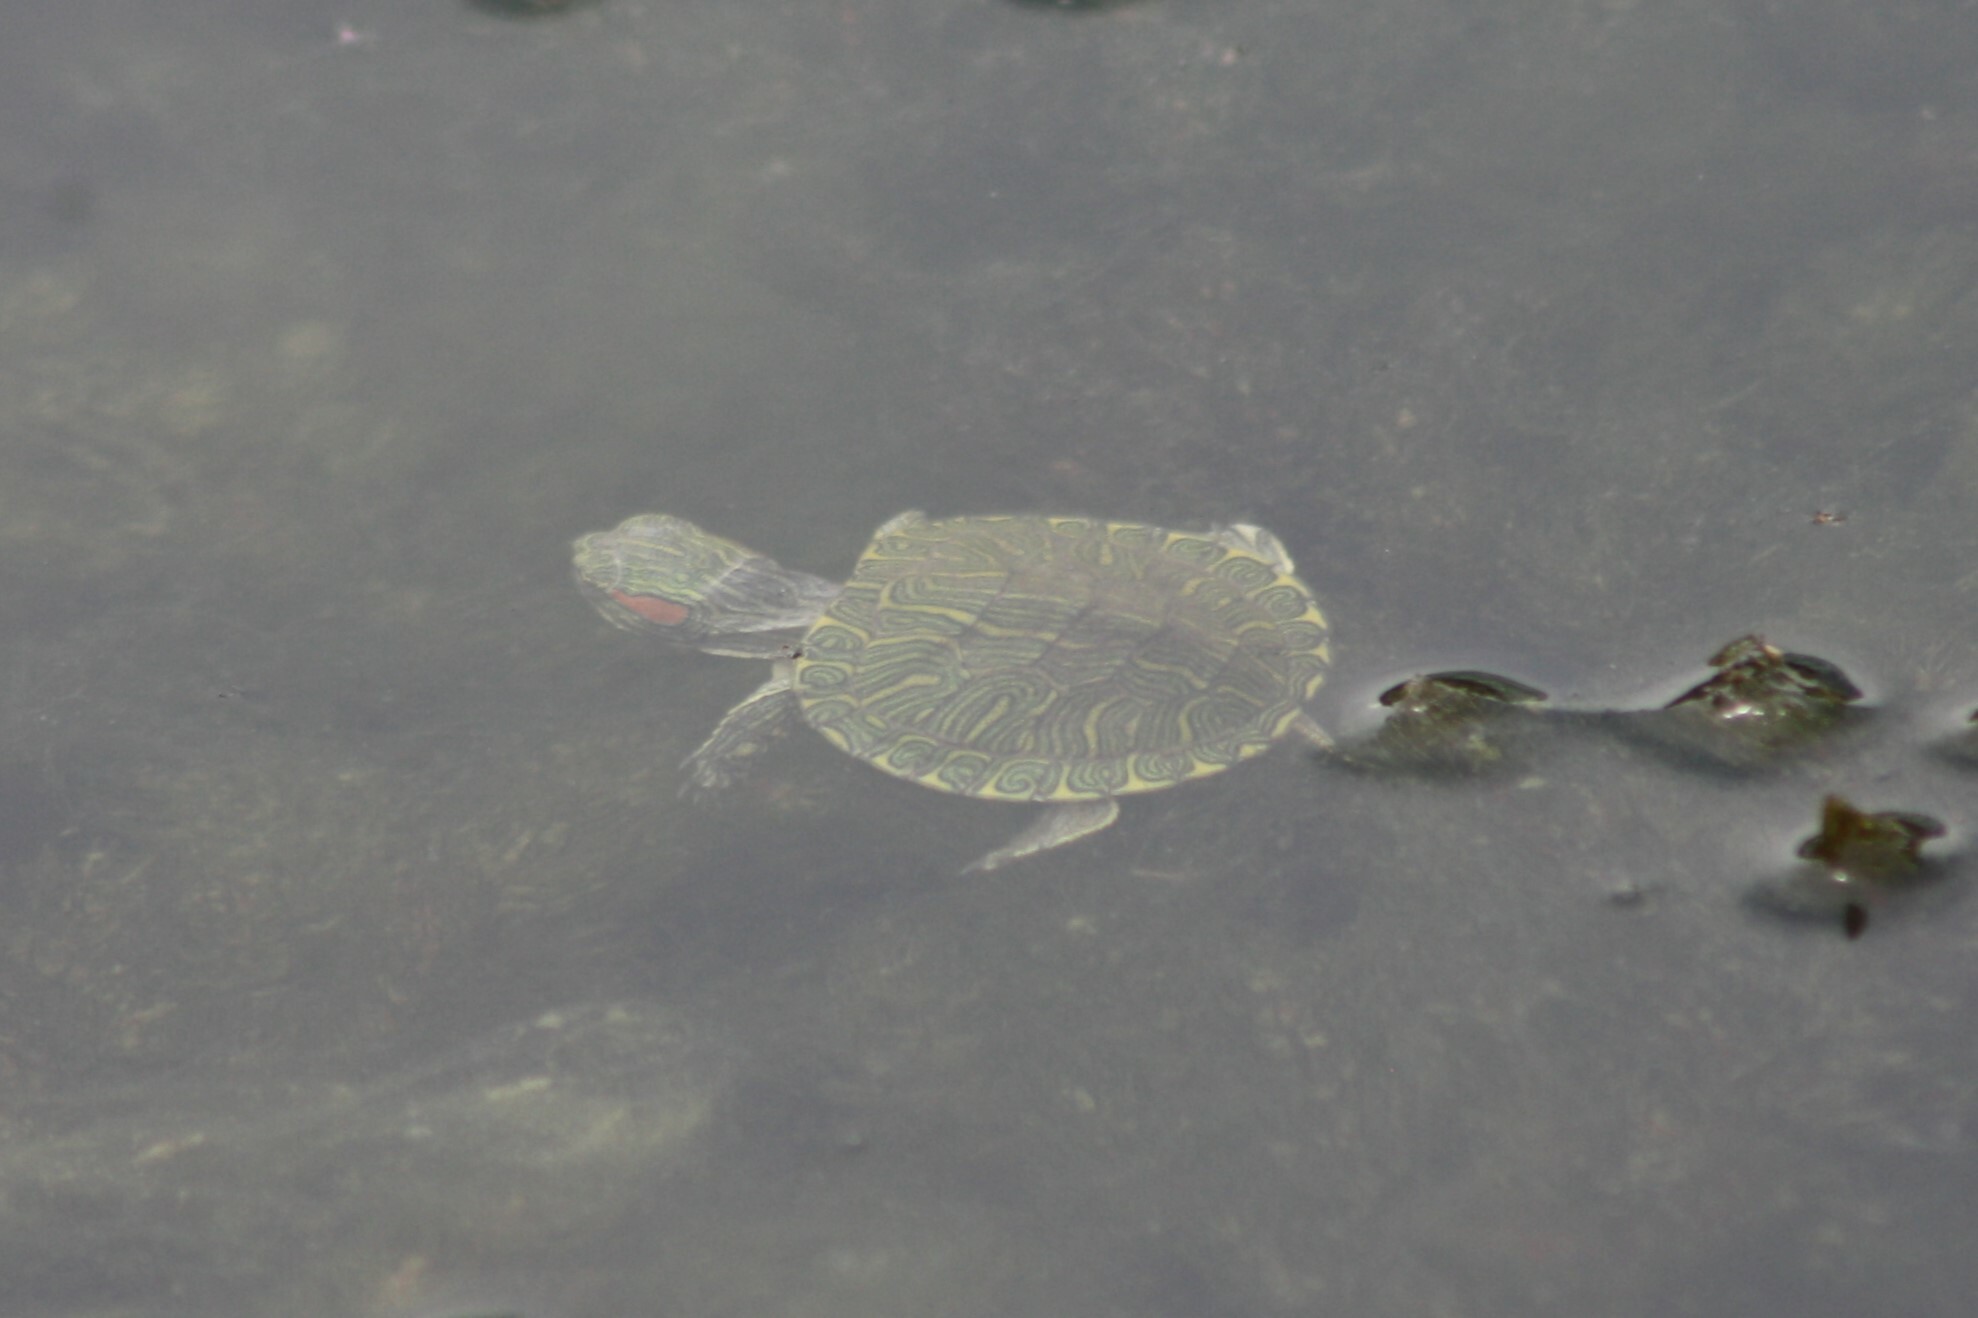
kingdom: Animalia
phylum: Chordata
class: Testudines
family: Emydidae
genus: Trachemys
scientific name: Trachemys scripta
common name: Slider
